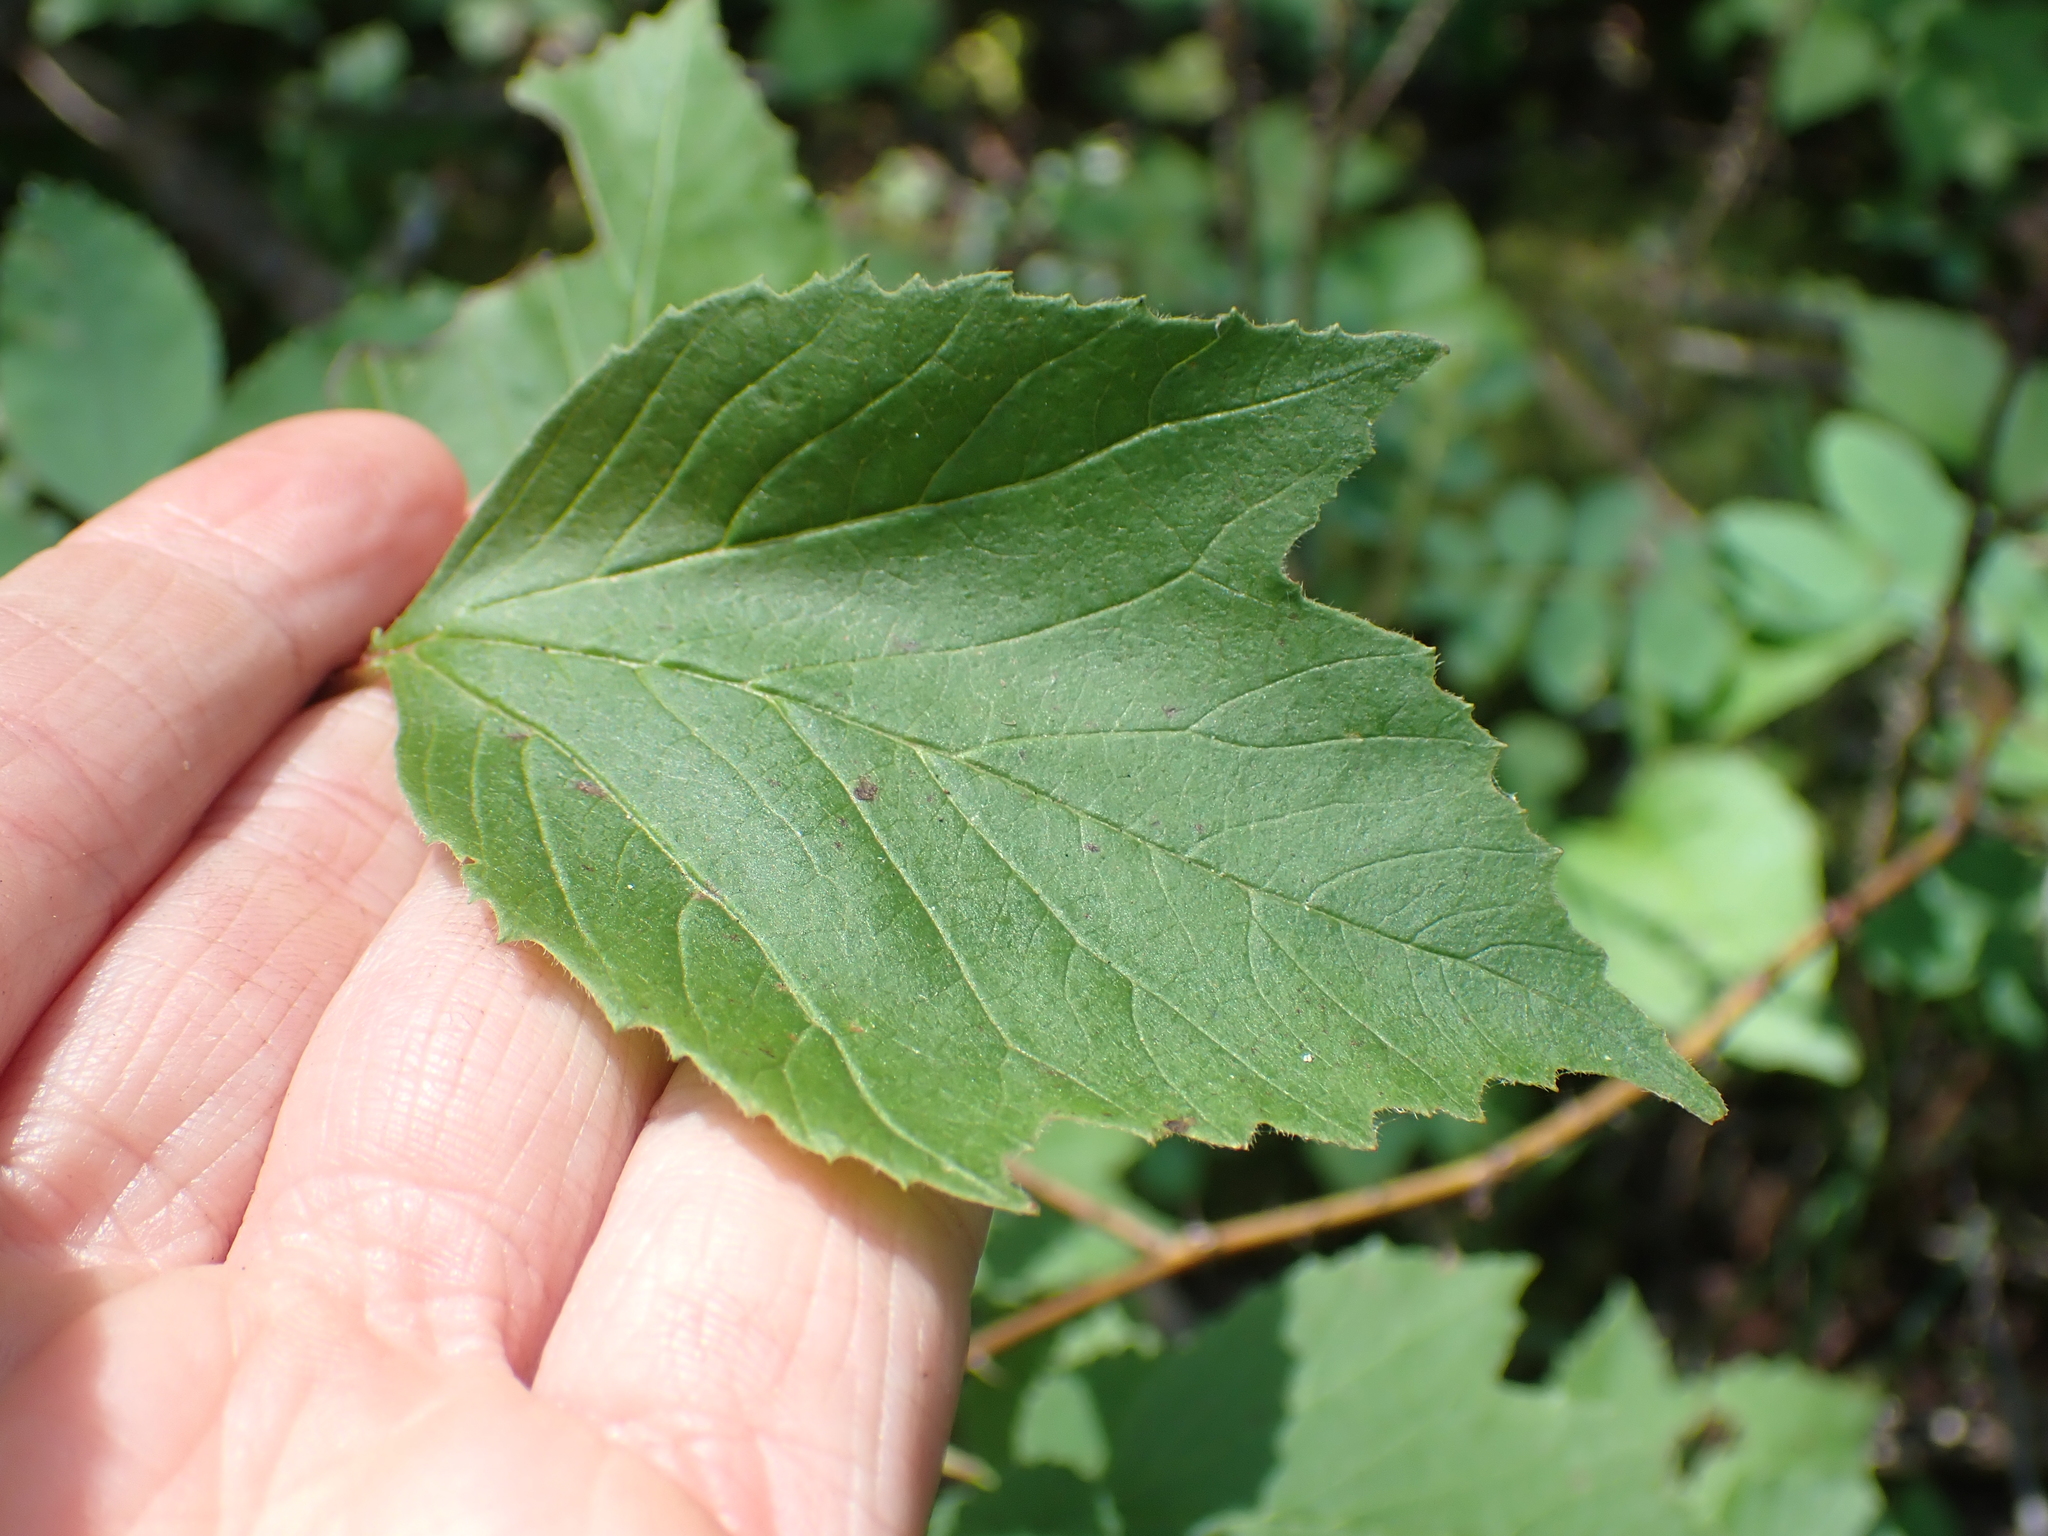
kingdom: Plantae
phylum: Tracheophyta
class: Magnoliopsida
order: Dipsacales
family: Viburnaceae
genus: Viburnum
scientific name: Viburnum edule
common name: Mooseberry
